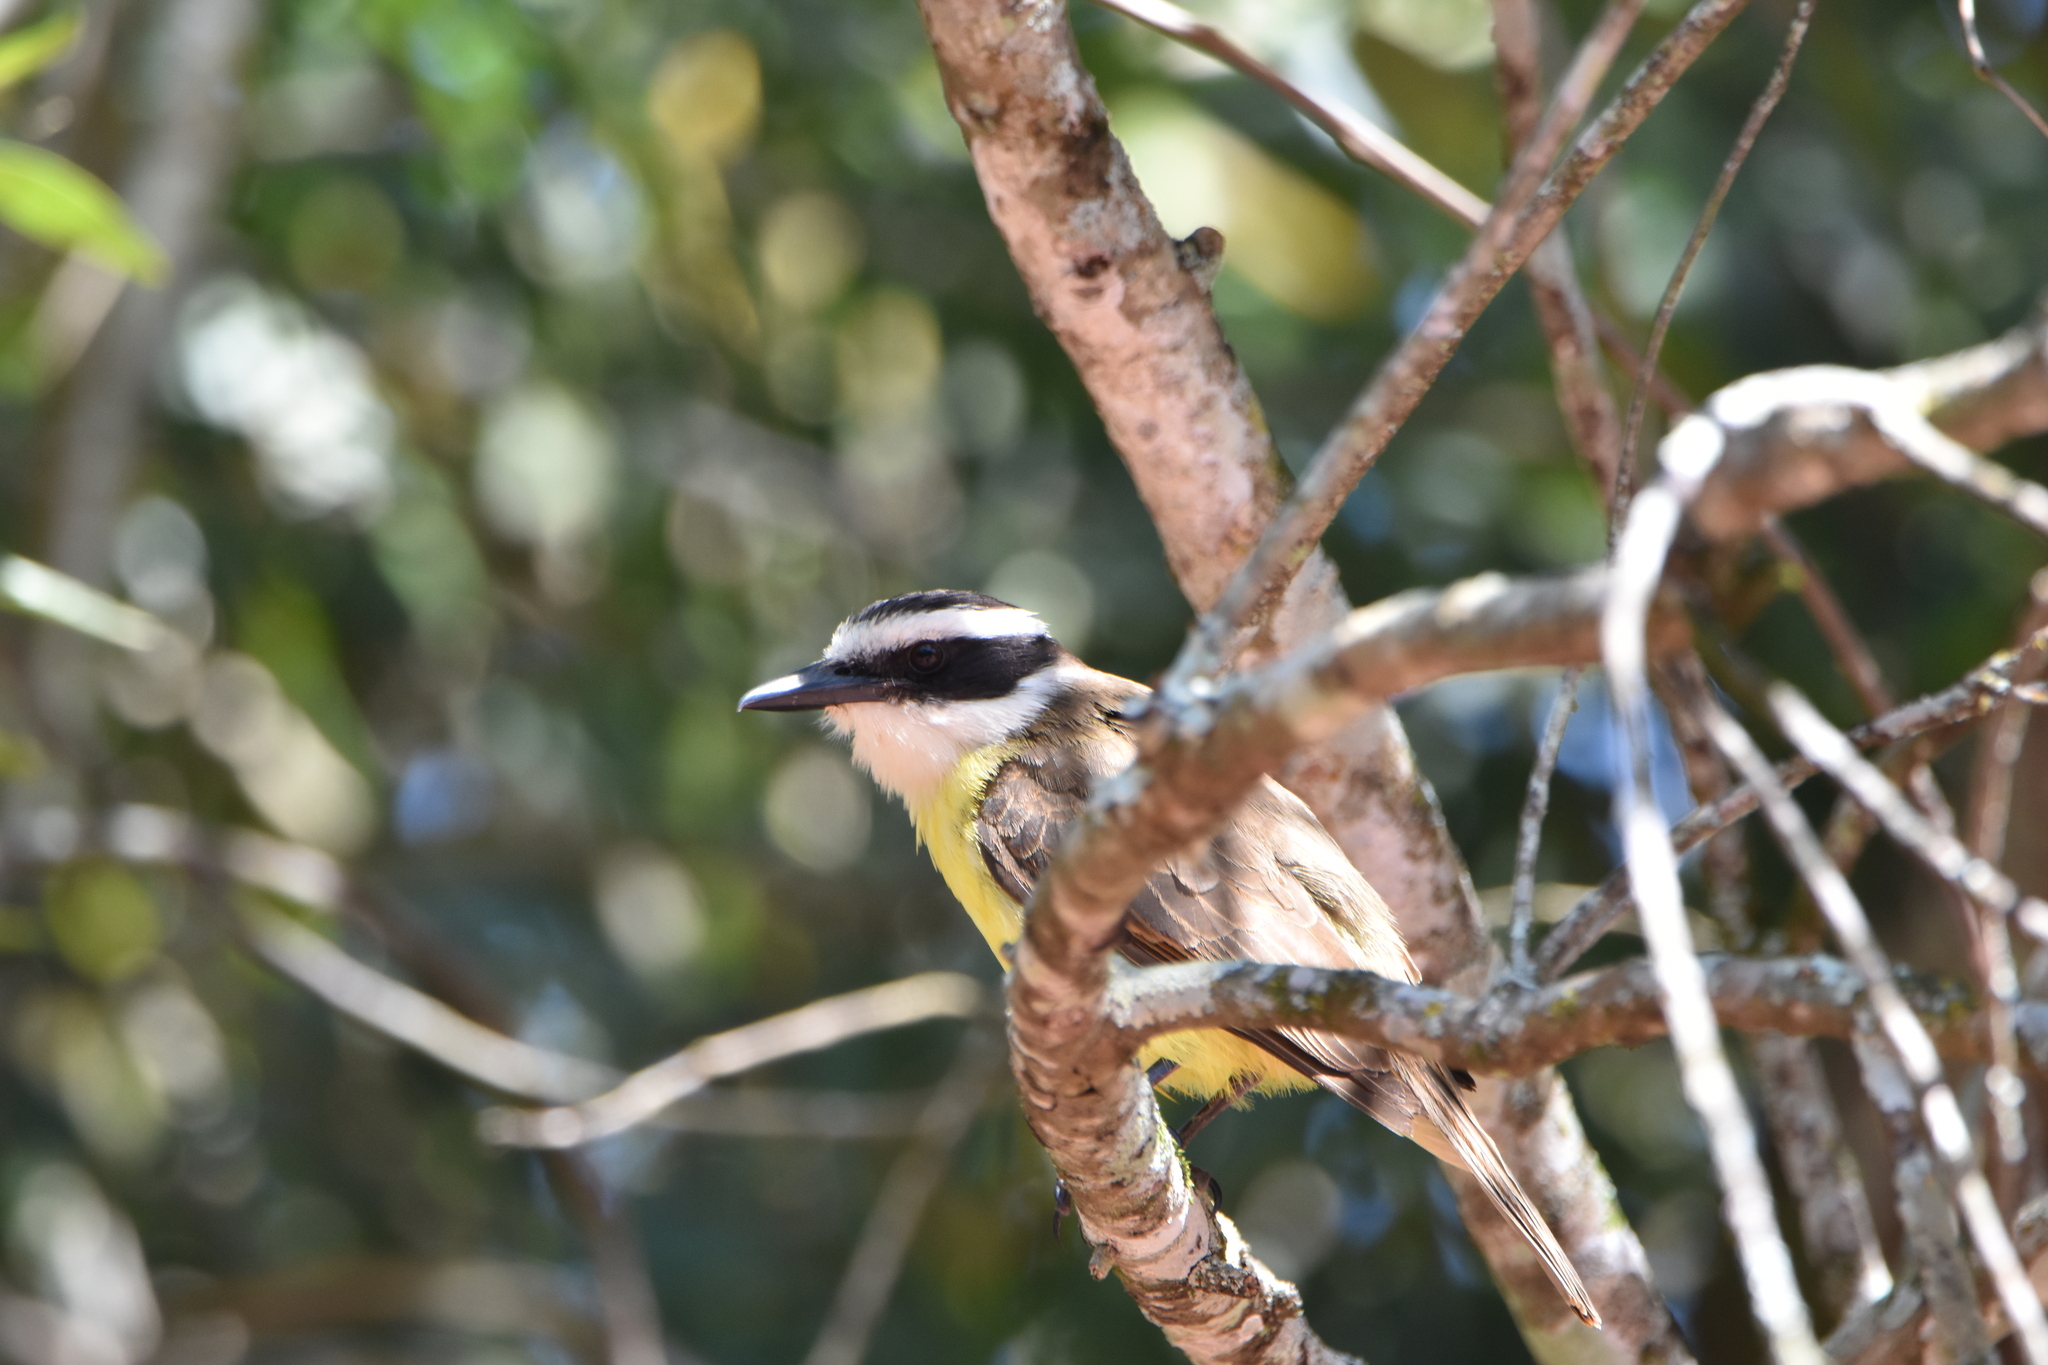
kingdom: Animalia
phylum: Chordata
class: Aves
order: Passeriformes
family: Tyrannidae
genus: Pitangus
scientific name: Pitangus sulphuratus
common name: Great kiskadee
